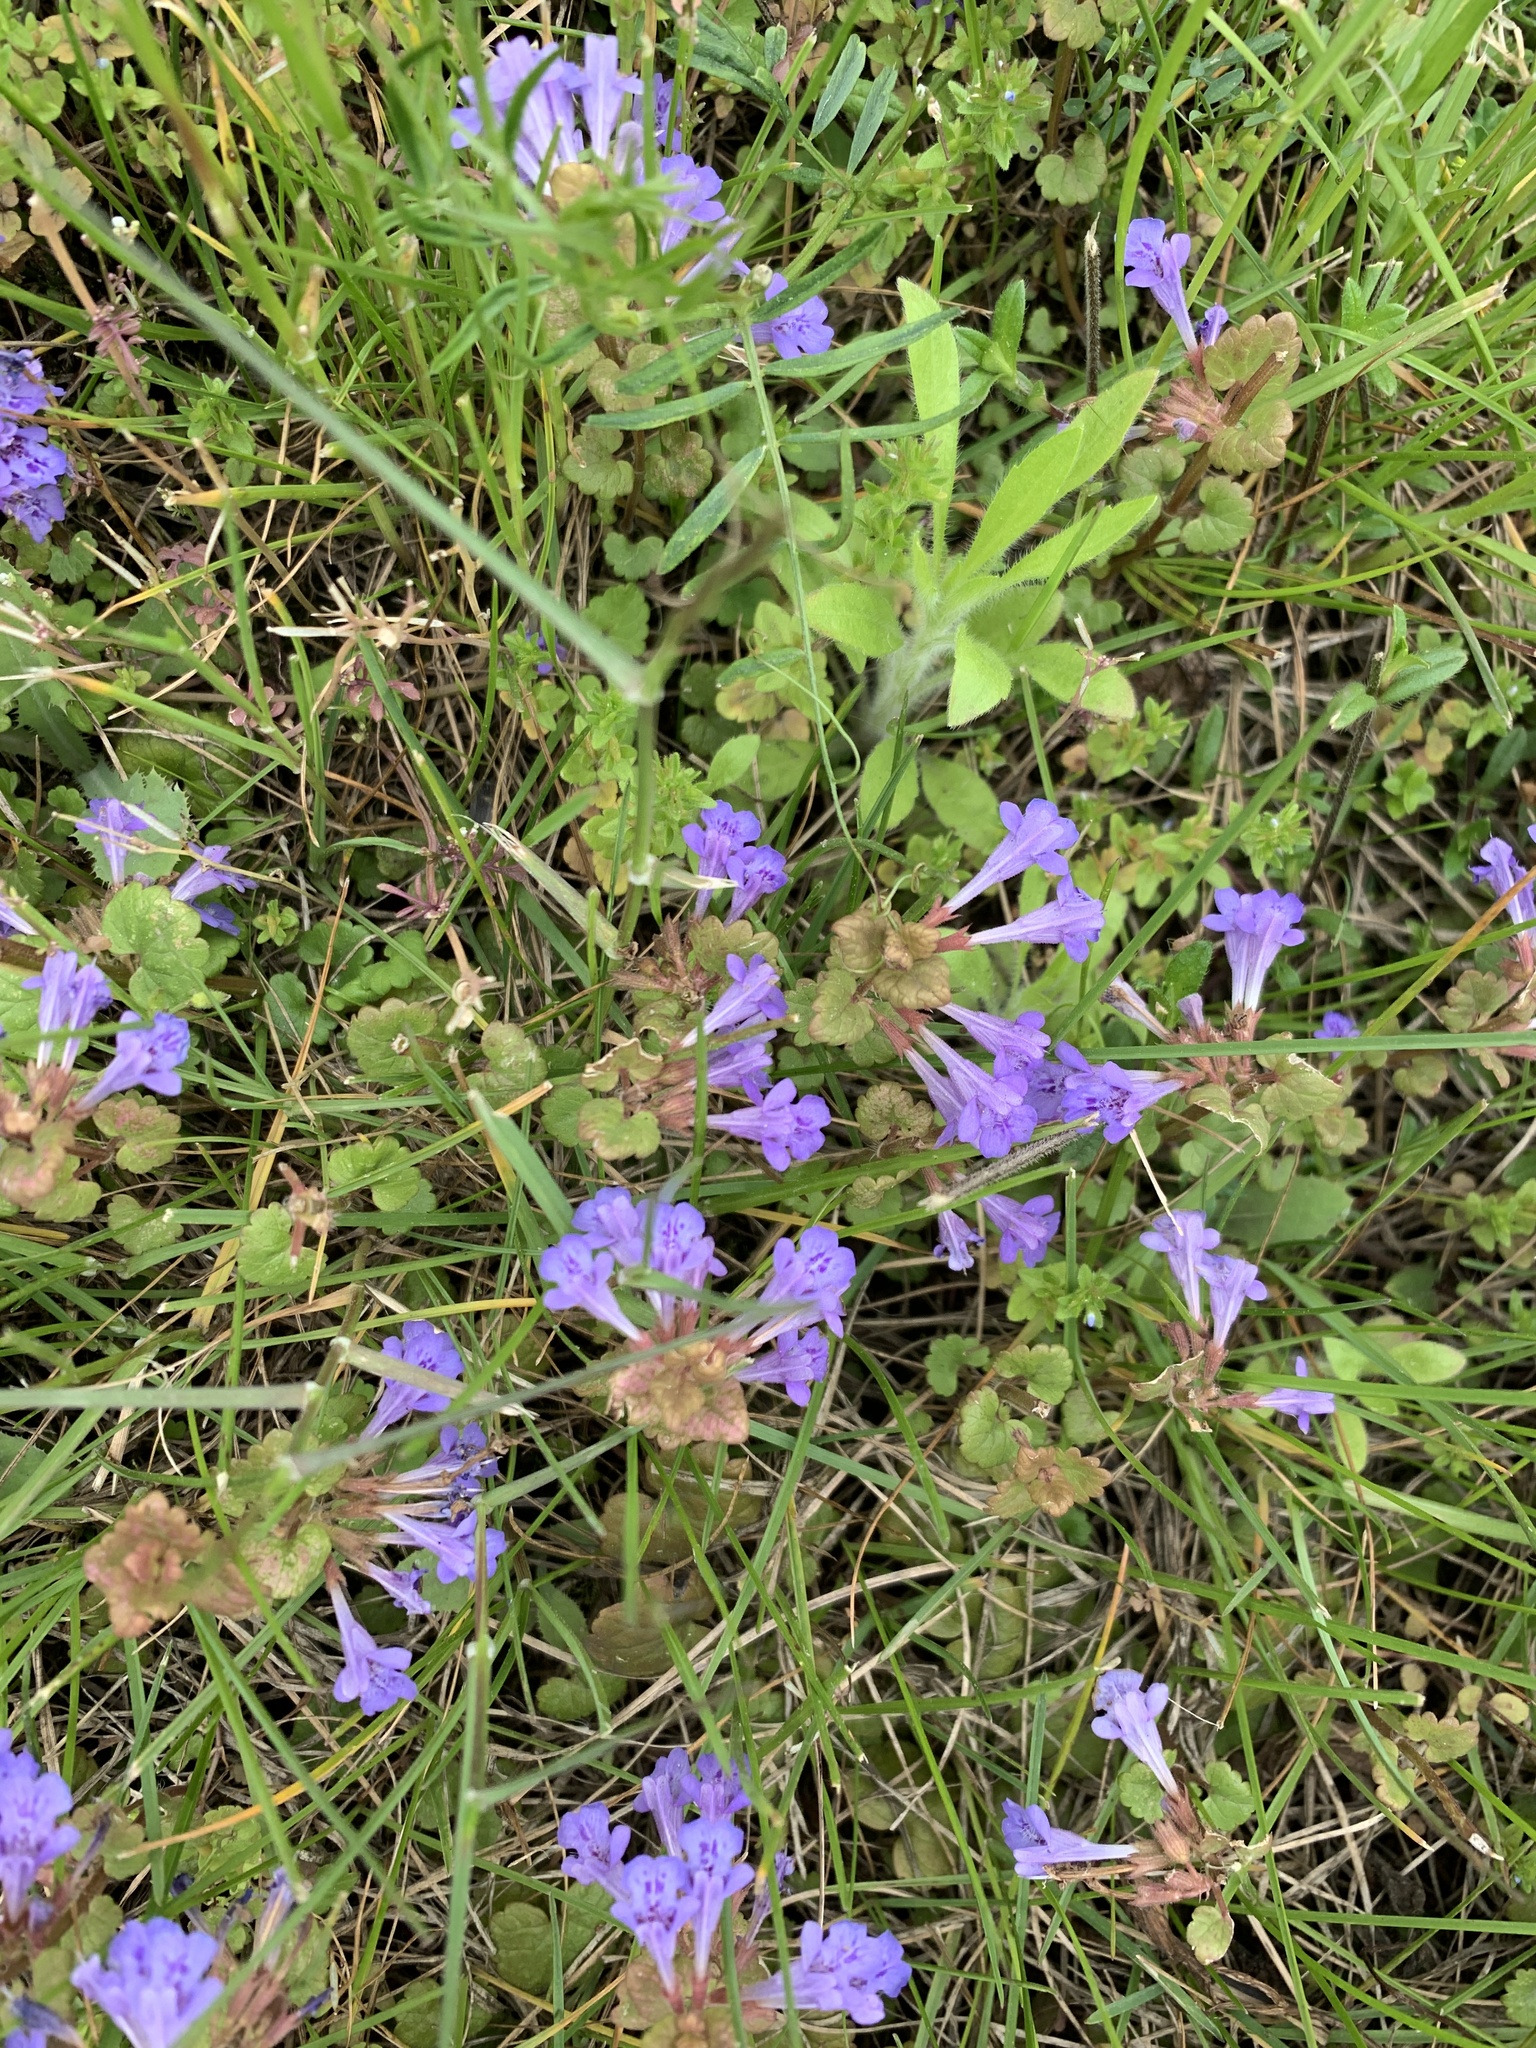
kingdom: Plantae
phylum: Tracheophyta
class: Magnoliopsida
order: Lamiales
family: Lamiaceae
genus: Glechoma
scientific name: Glechoma hederacea
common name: Ground ivy
